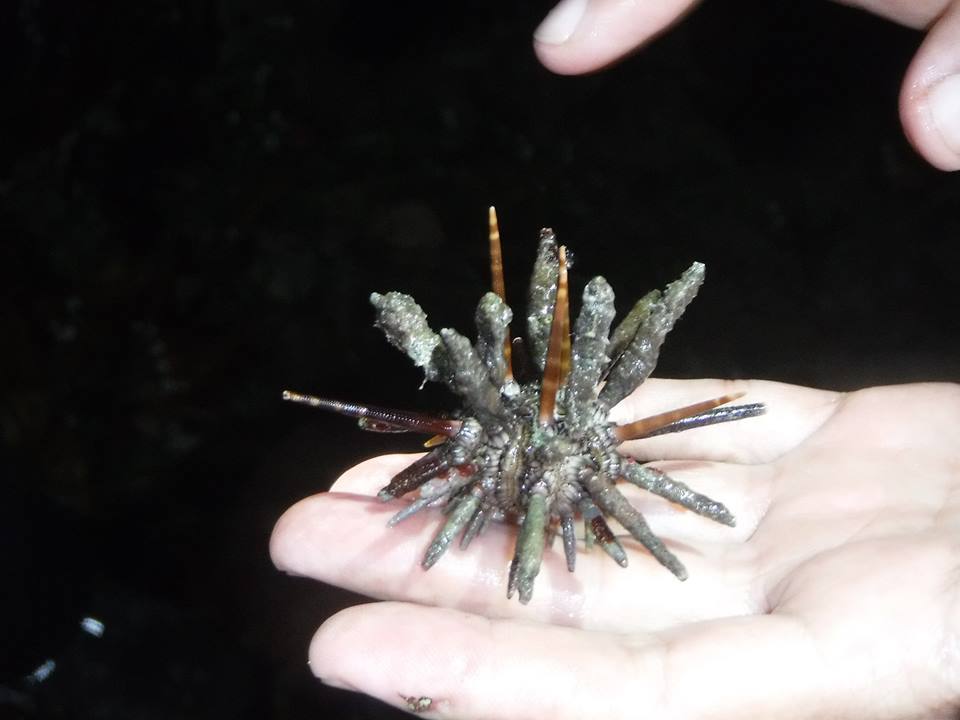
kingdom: Animalia
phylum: Echinodermata
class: Echinoidea
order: Cidaroida
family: Cidaridae
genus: Eucidaris
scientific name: Eucidaris tribuloides
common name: Slate pencil urchin
